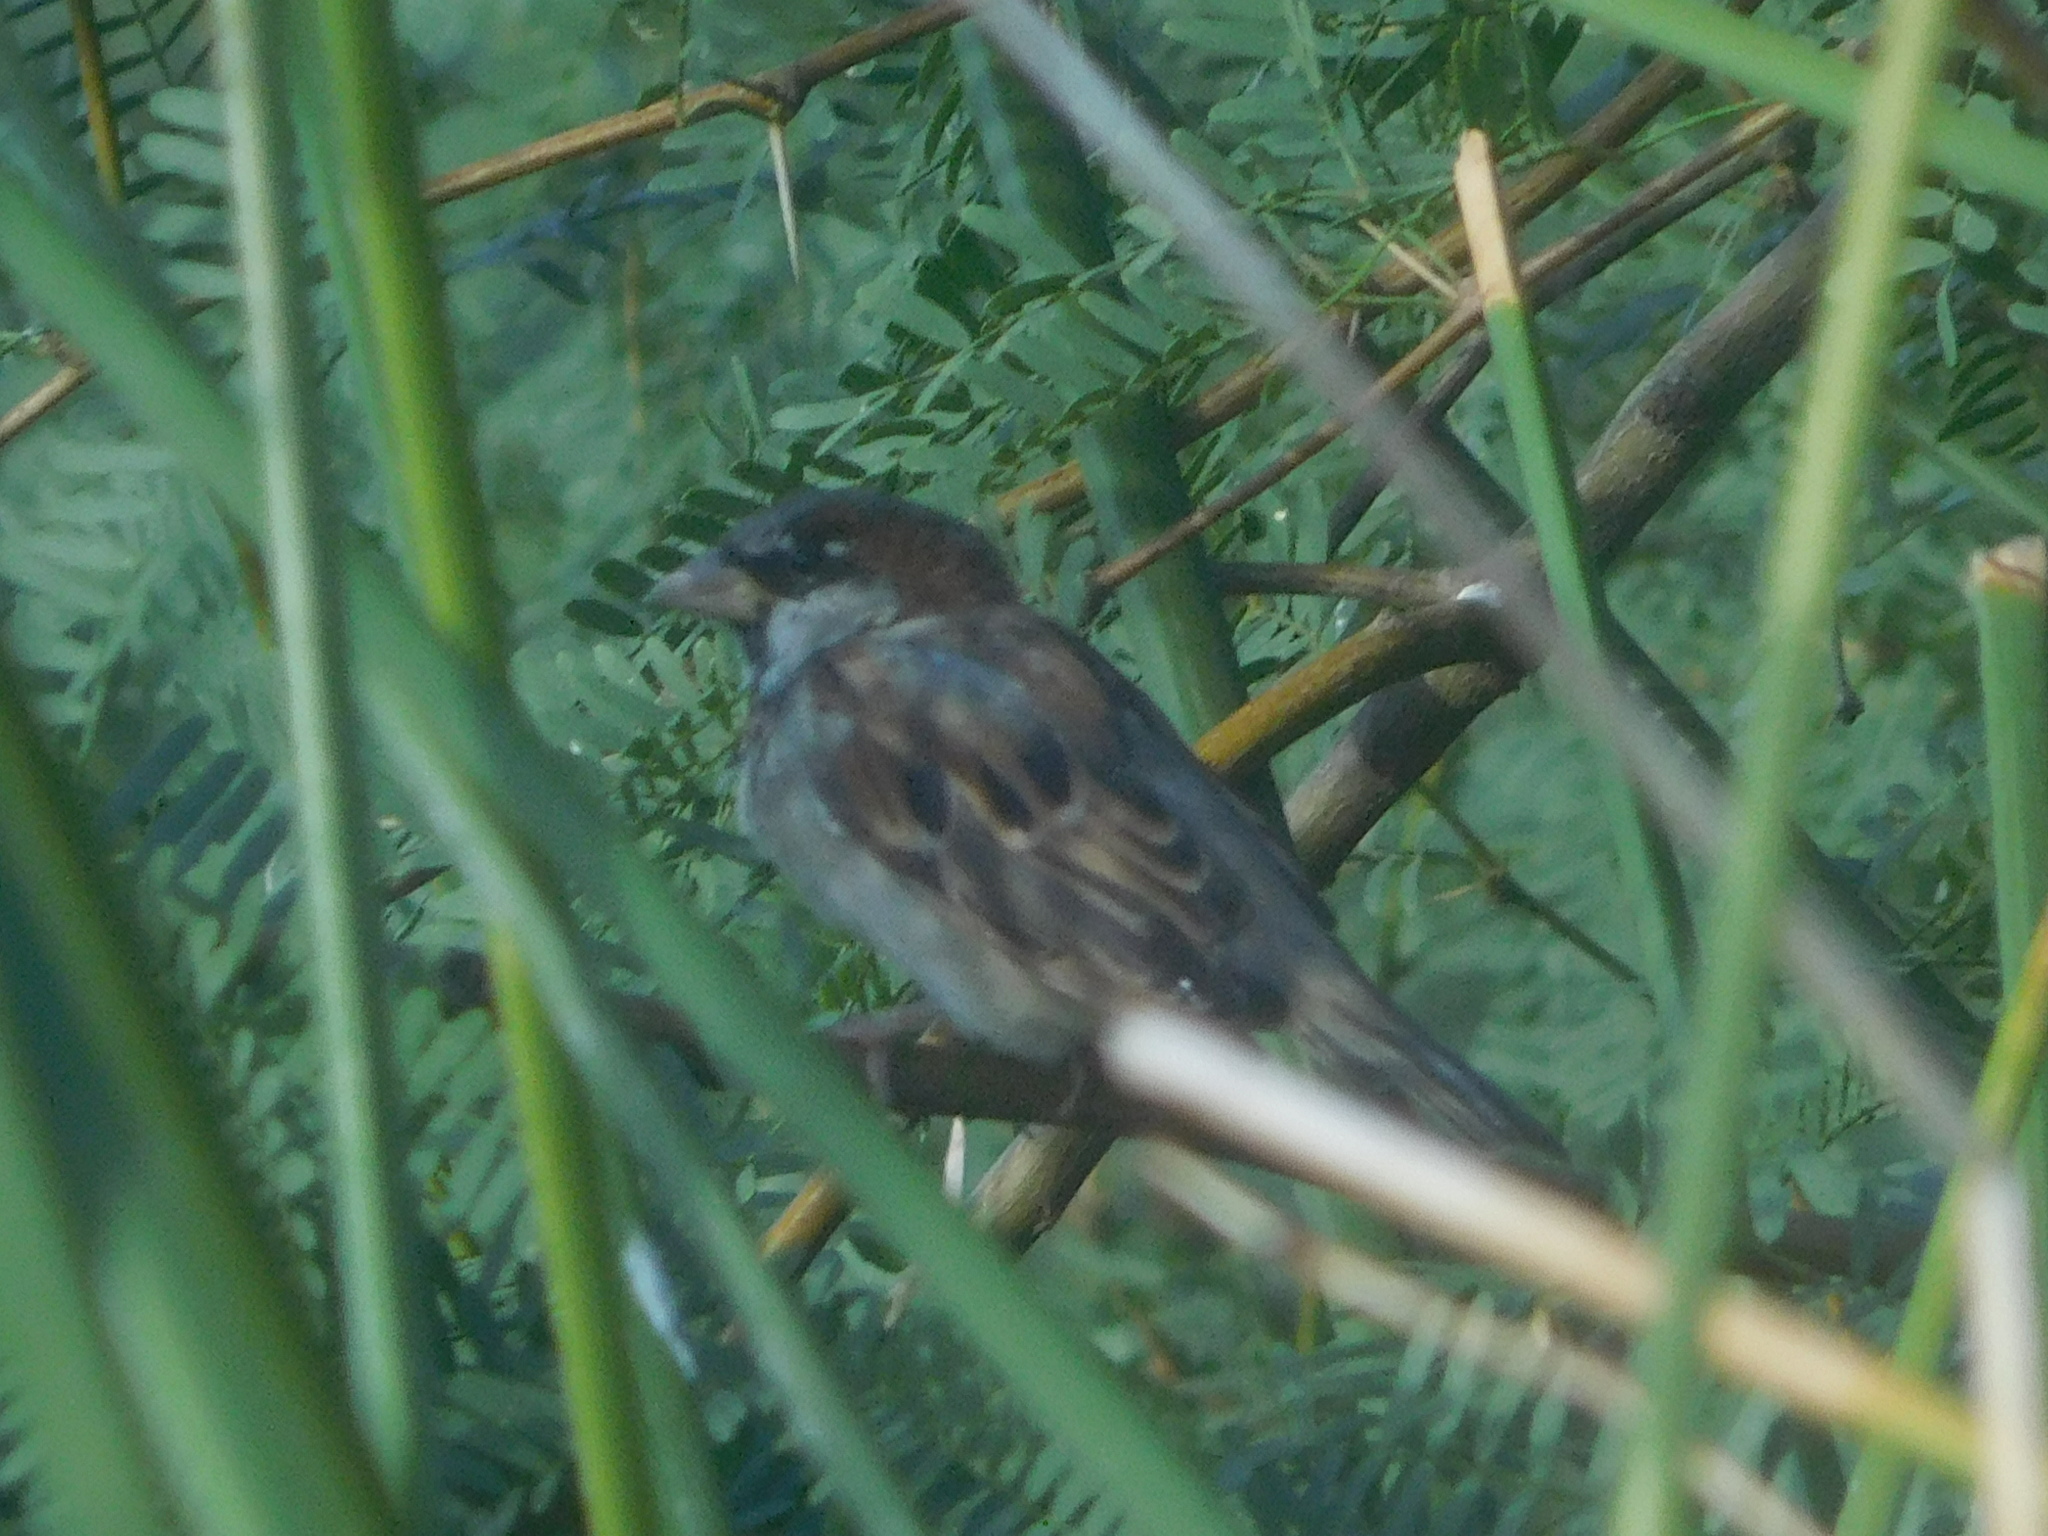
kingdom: Animalia
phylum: Chordata
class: Aves
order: Passeriformes
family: Passeridae
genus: Passer
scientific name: Passer domesticus
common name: House sparrow
